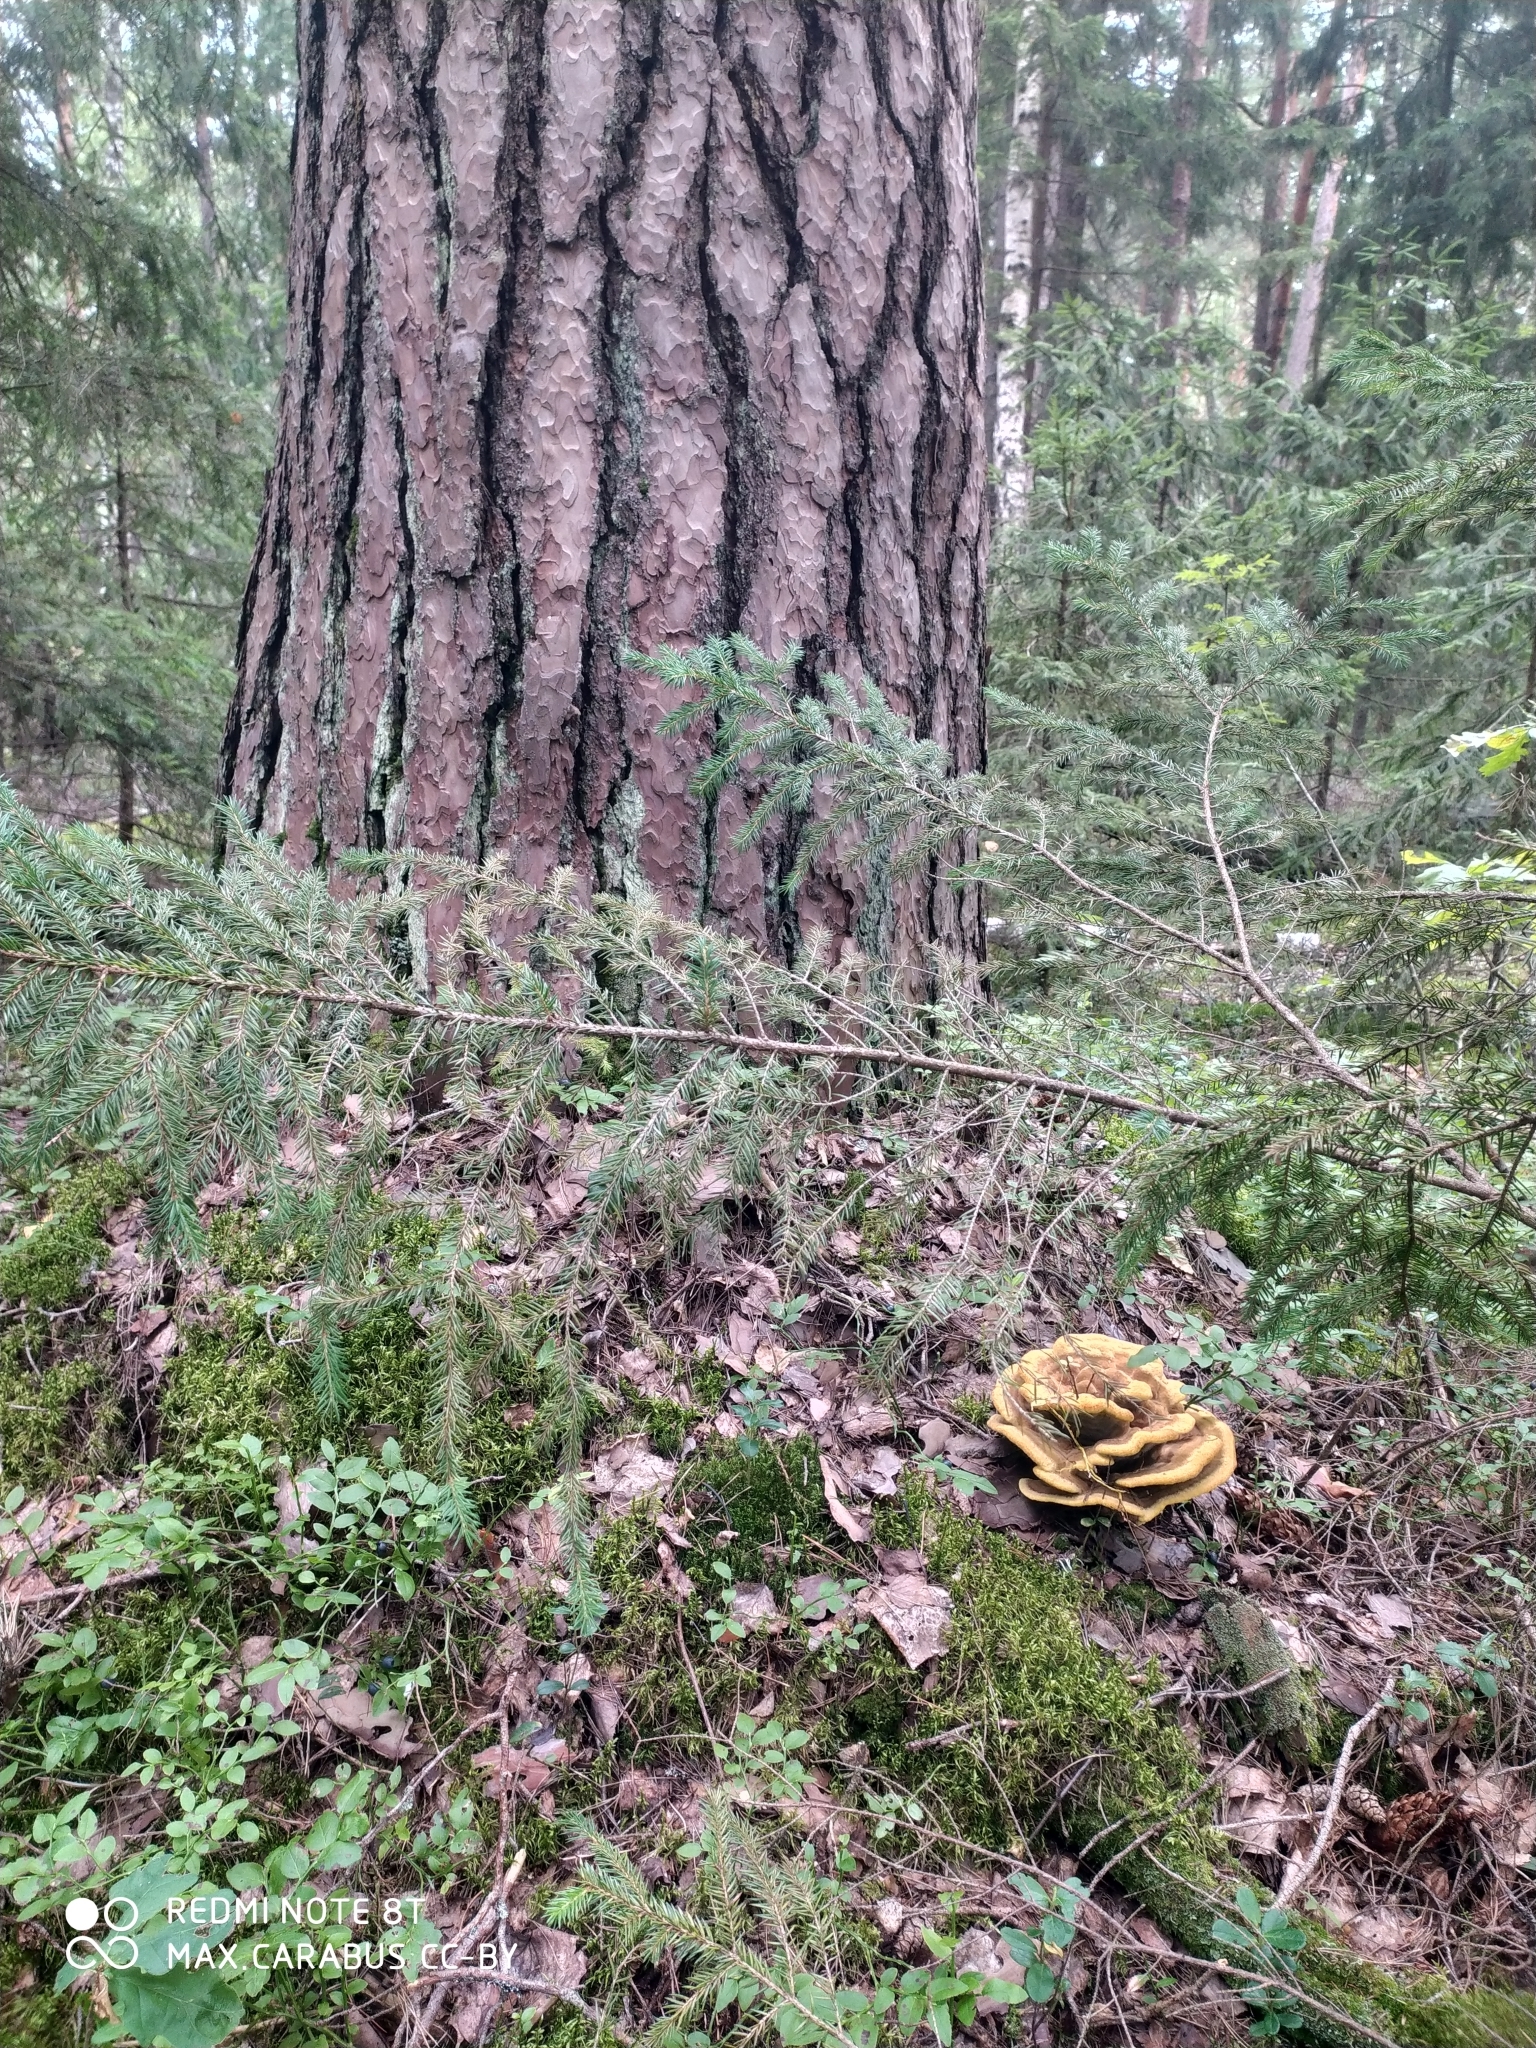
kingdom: Fungi
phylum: Basidiomycota
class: Agaricomycetes
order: Polyporales
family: Laetiporaceae
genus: Phaeolus
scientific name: Phaeolus schweinitzii
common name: Dyer's mazegill
